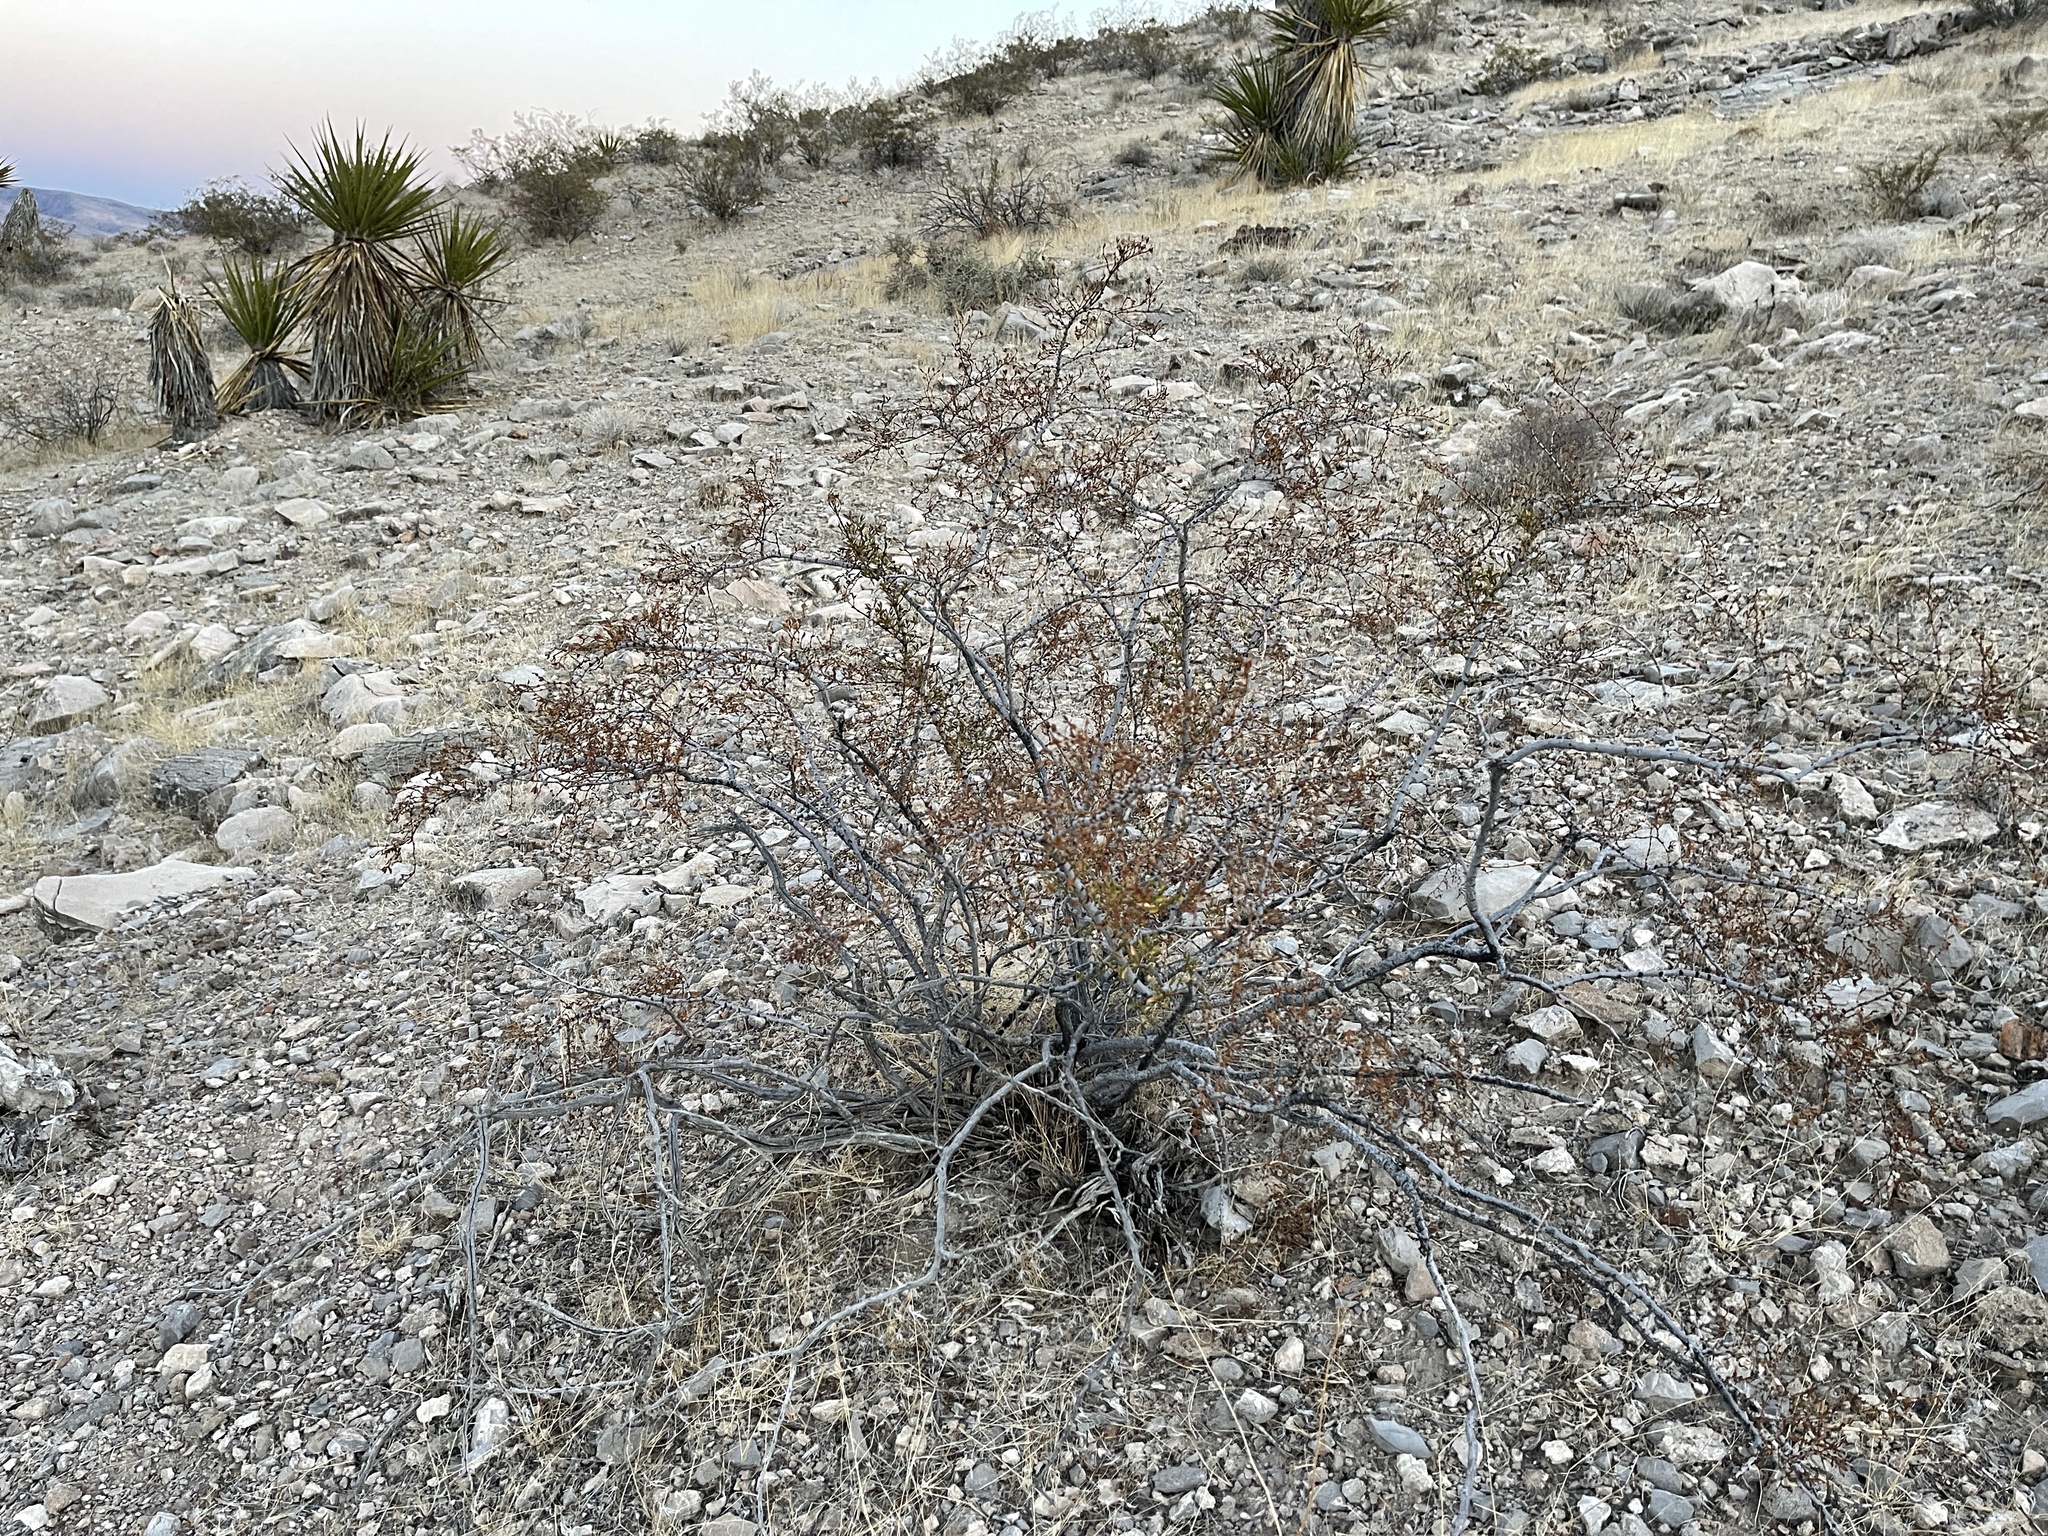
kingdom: Plantae
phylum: Tracheophyta
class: Magnoliopsida
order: Zygophyllales
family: Zygophyllaceae
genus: Larrea
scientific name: Larrea tridentata
